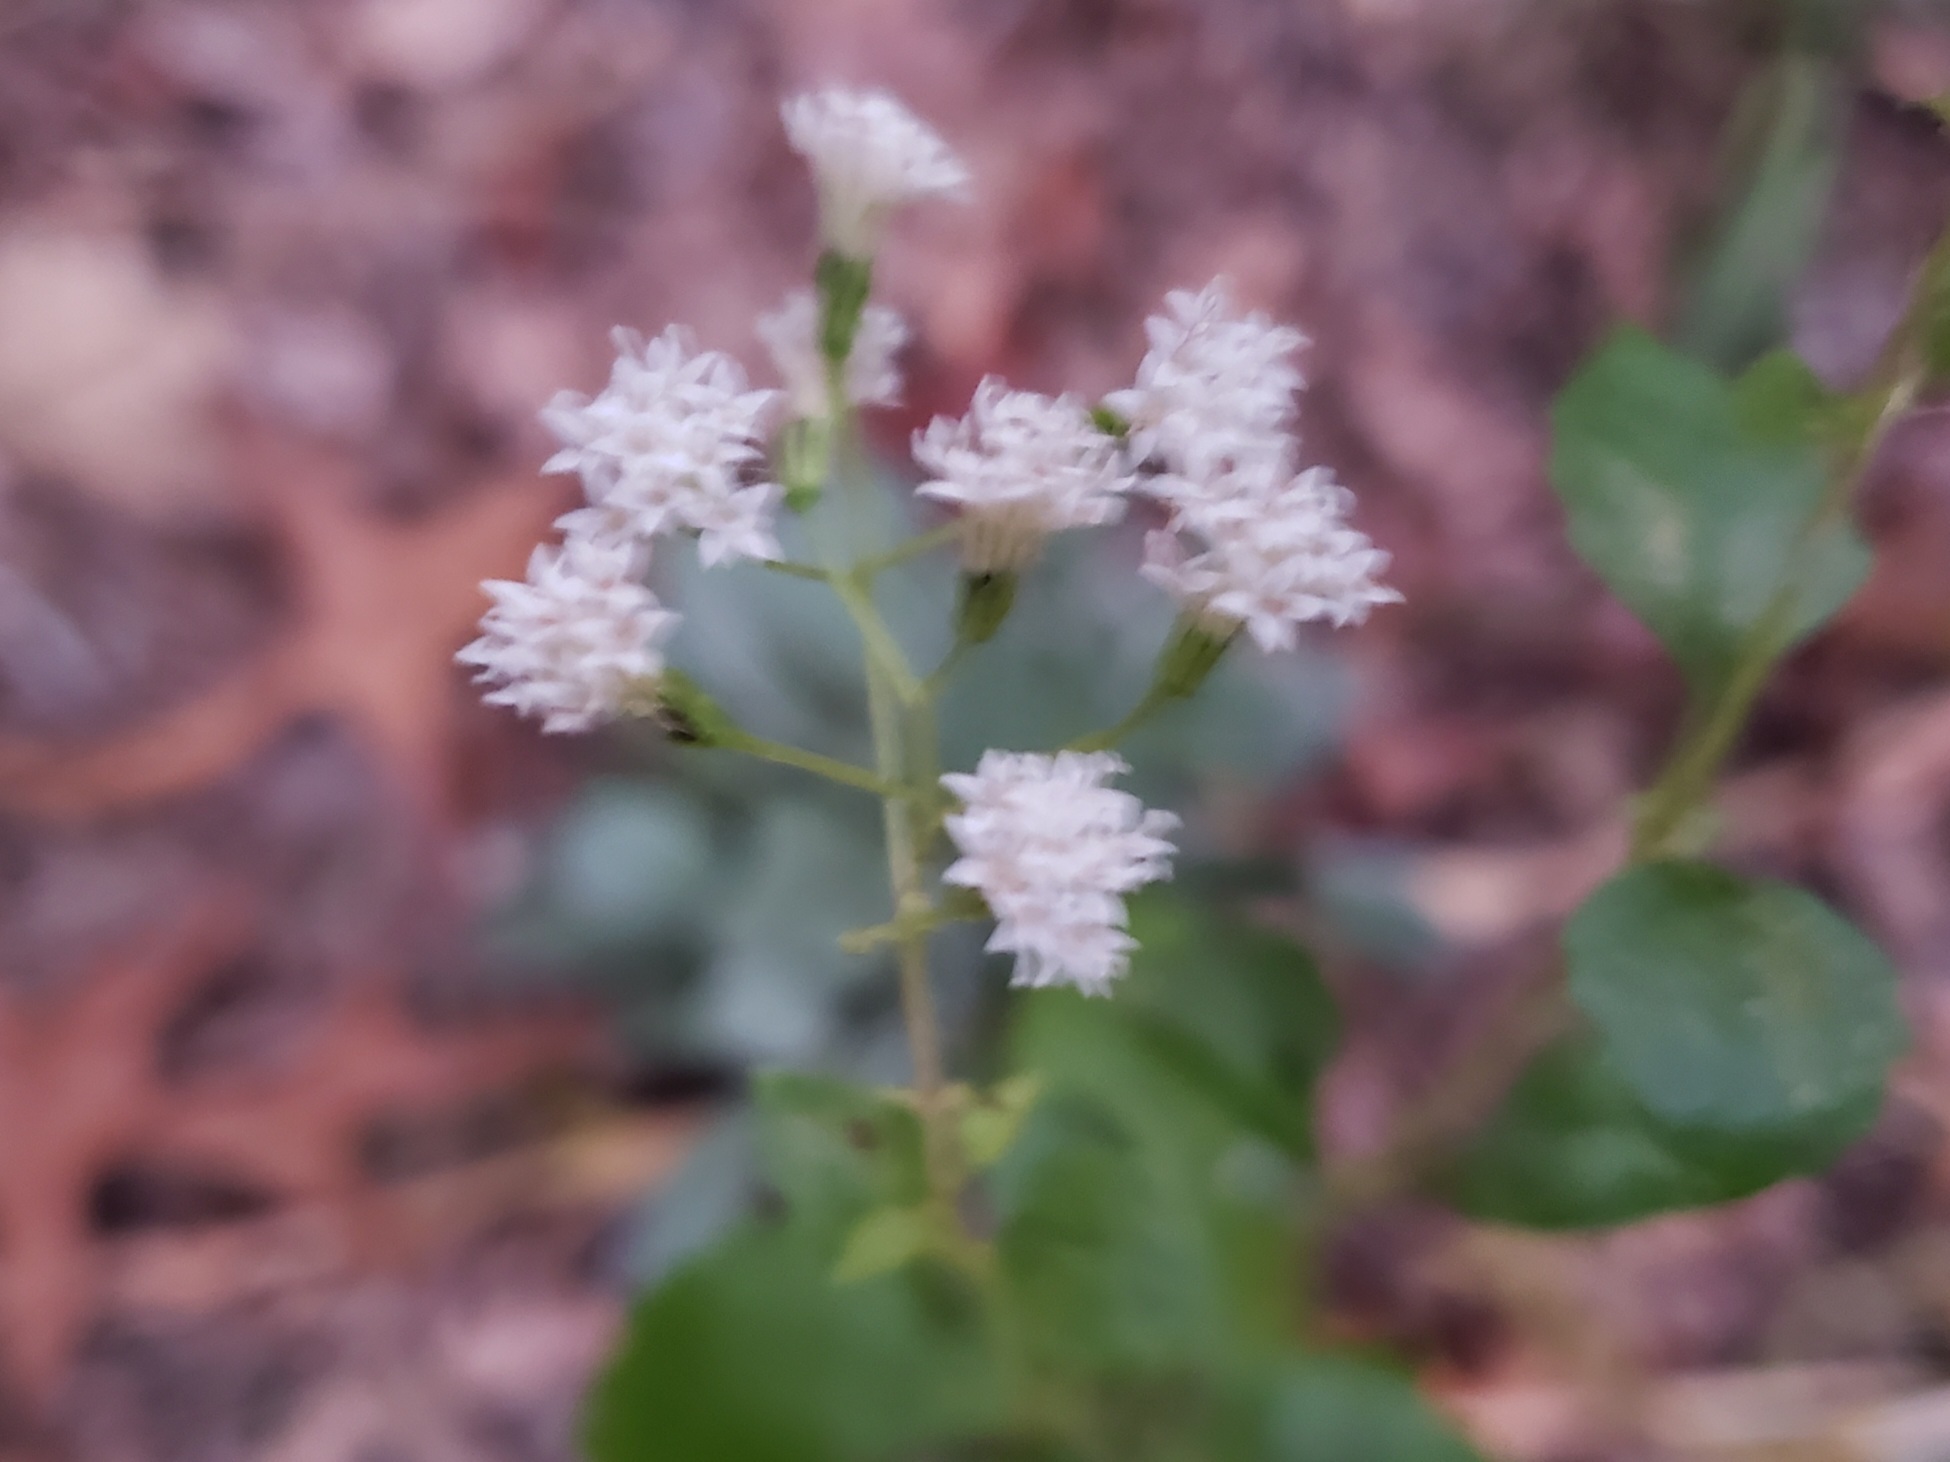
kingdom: Plantae
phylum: Tracheophyta
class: Magnoliopsida
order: Asterales
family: Asteraceae
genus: Ageratina
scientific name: Ageratina jucunda
